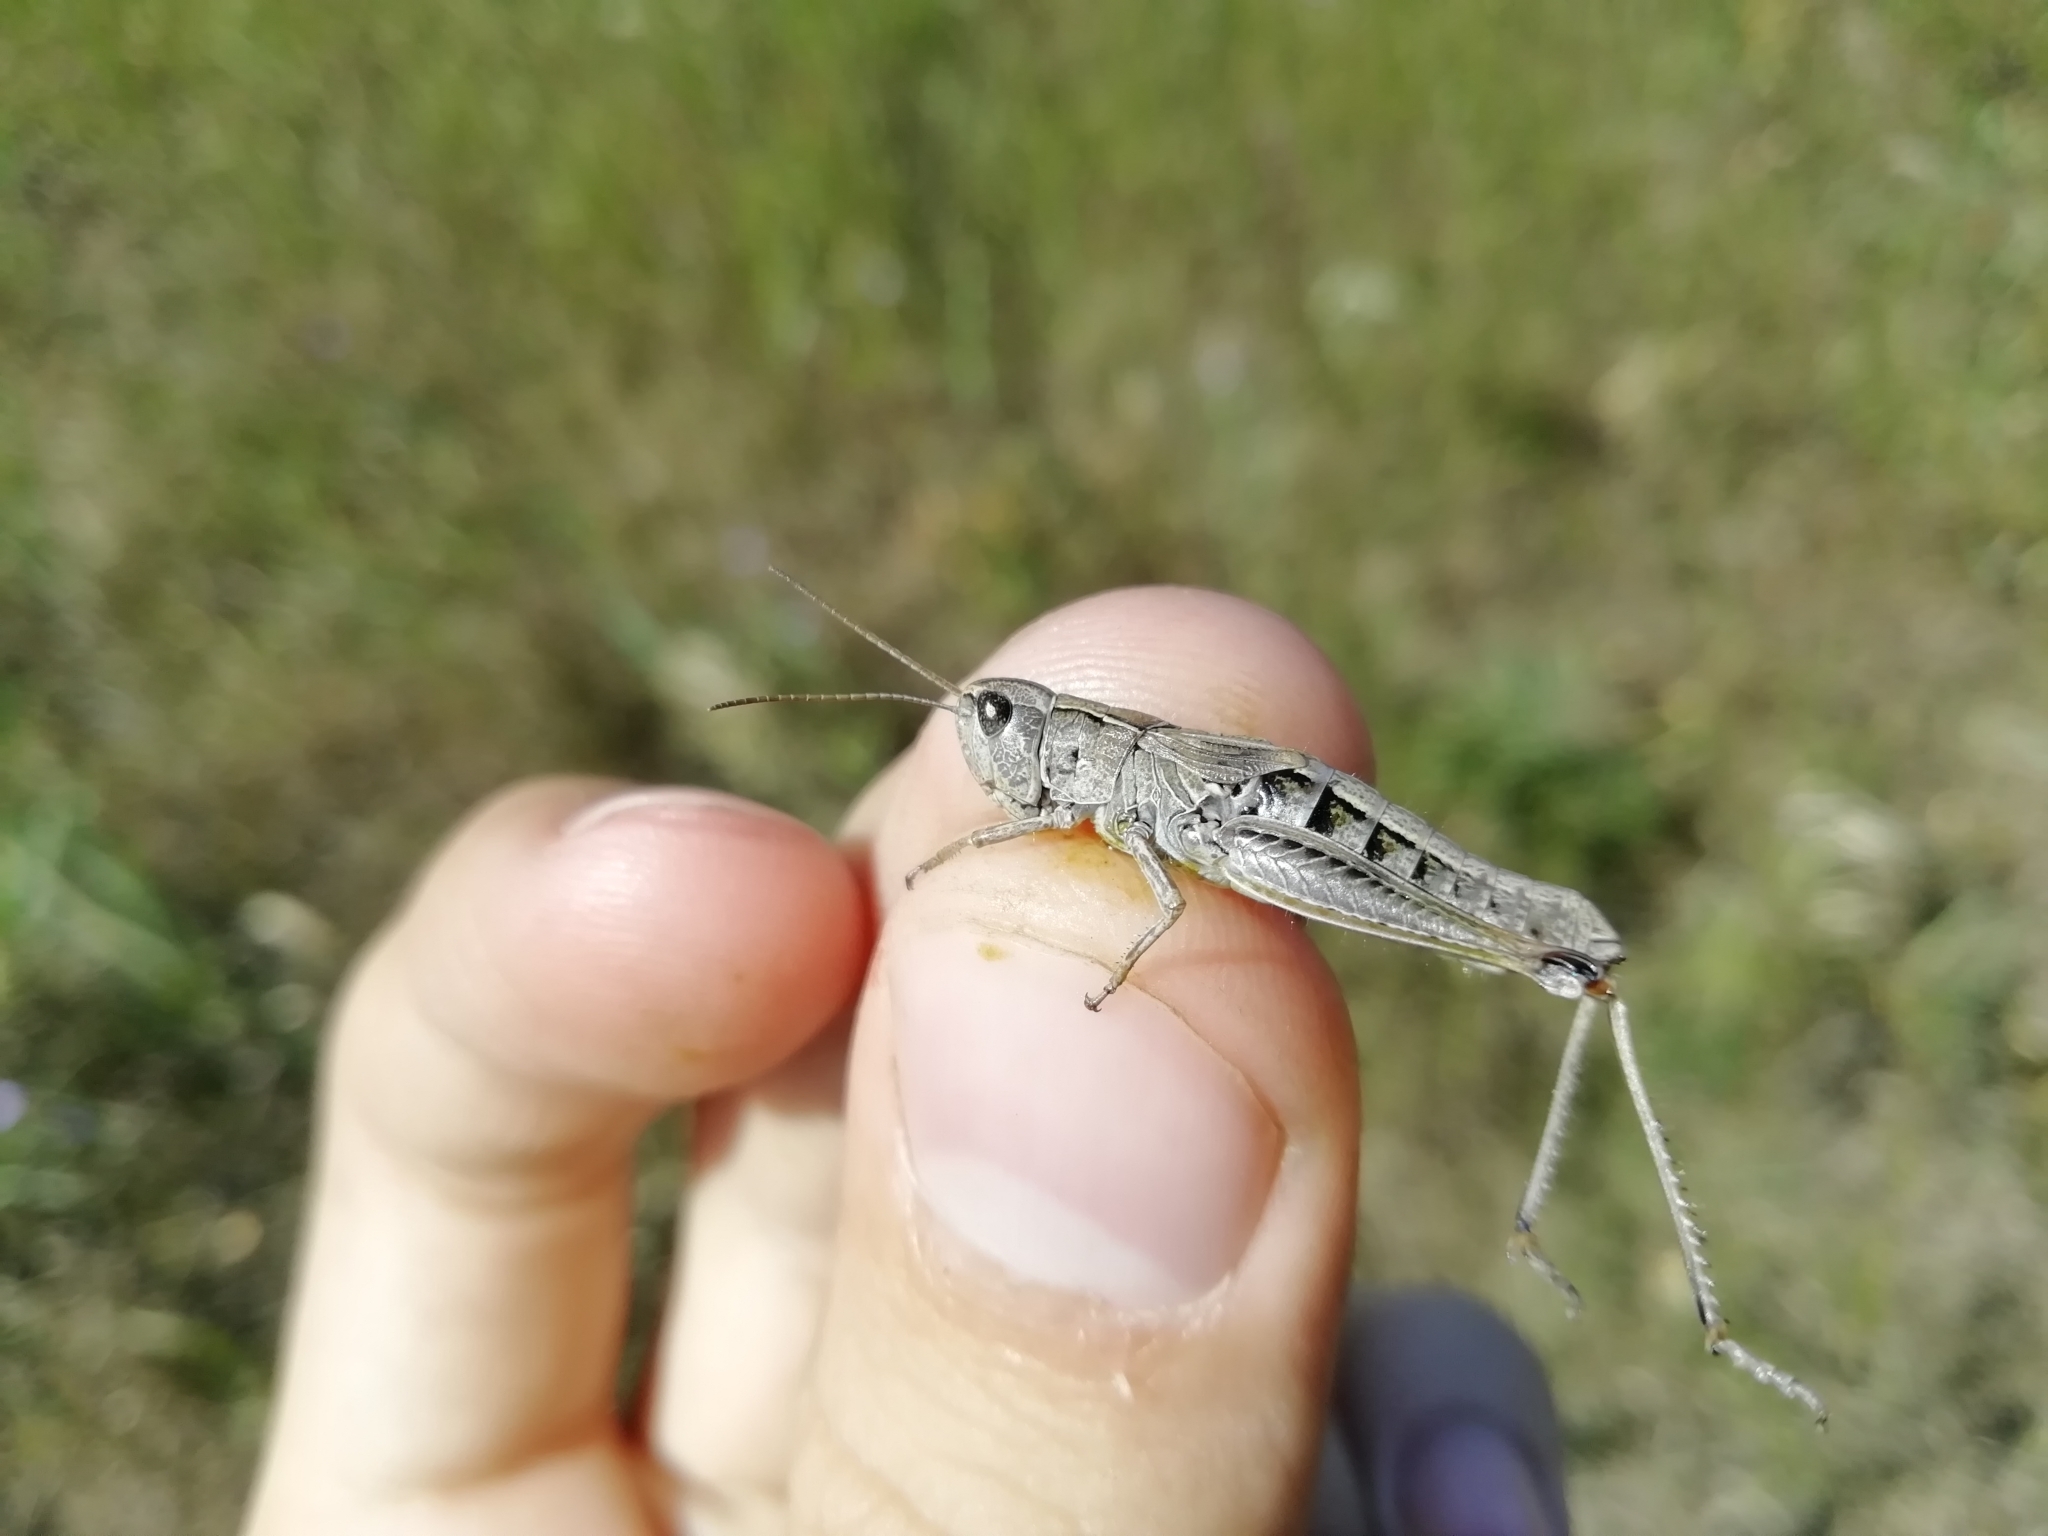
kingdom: Animalia
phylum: Arthropoda
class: Insecta
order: Orthoptera
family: Acrididae
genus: Chorthippus
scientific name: Chorthippus fallax
